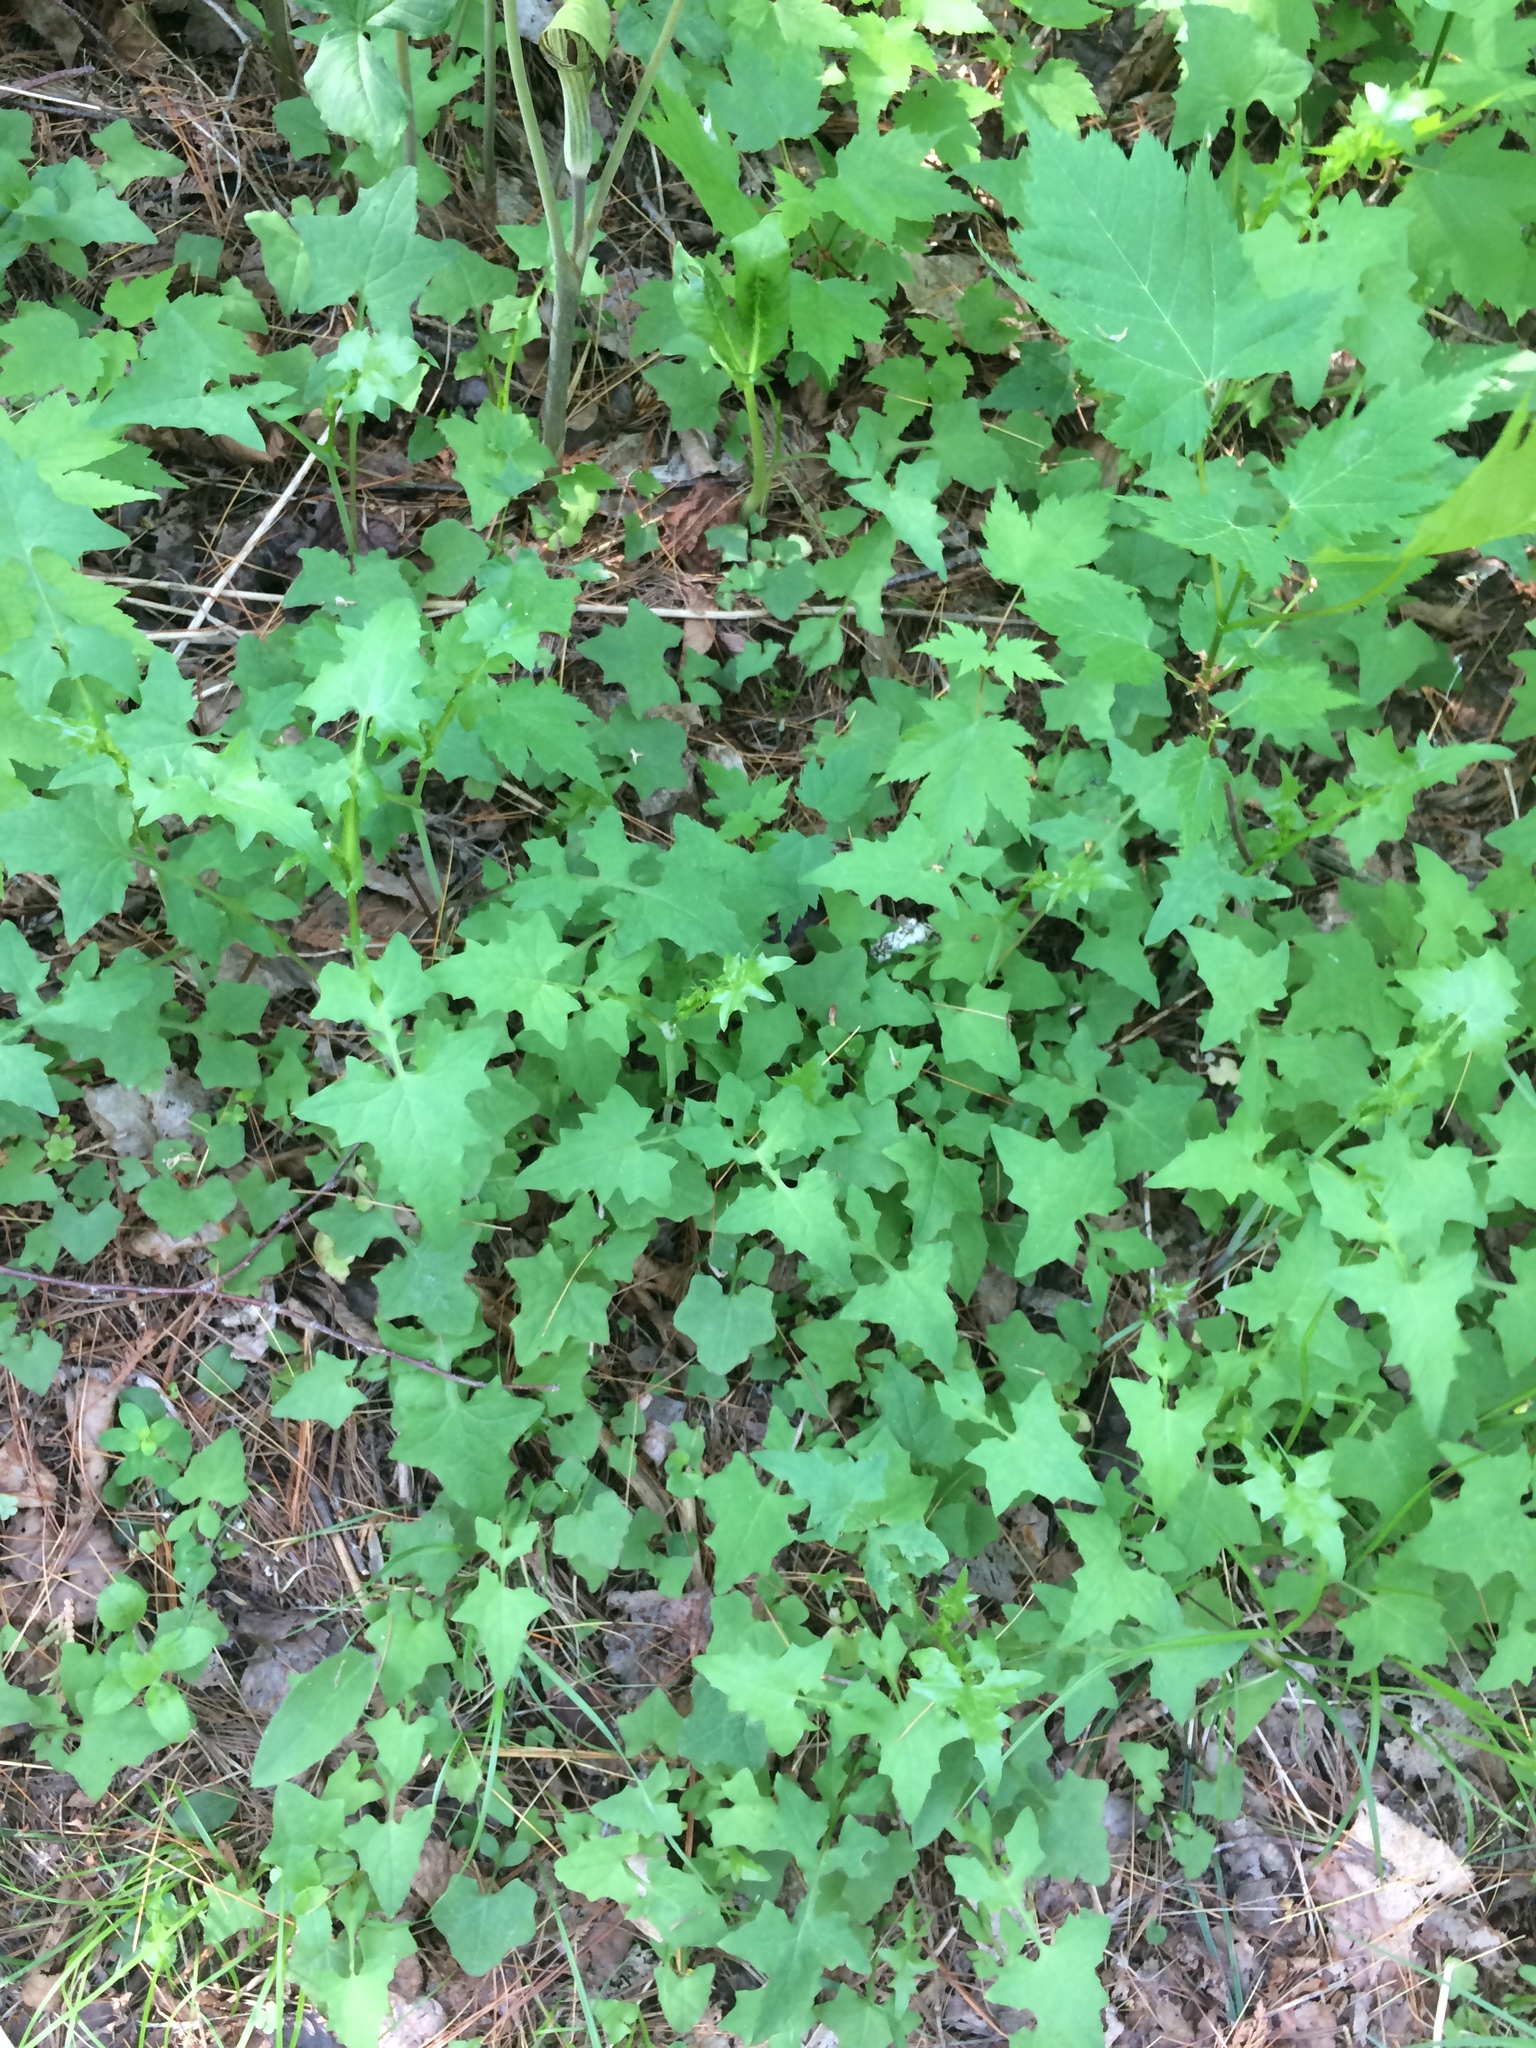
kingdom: Plantae
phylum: Tracheophyta
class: Magnoliopsida
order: Asterales
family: Asteraceae
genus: Mycelis
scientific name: Mycelis muralis
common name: Wall lettuce
